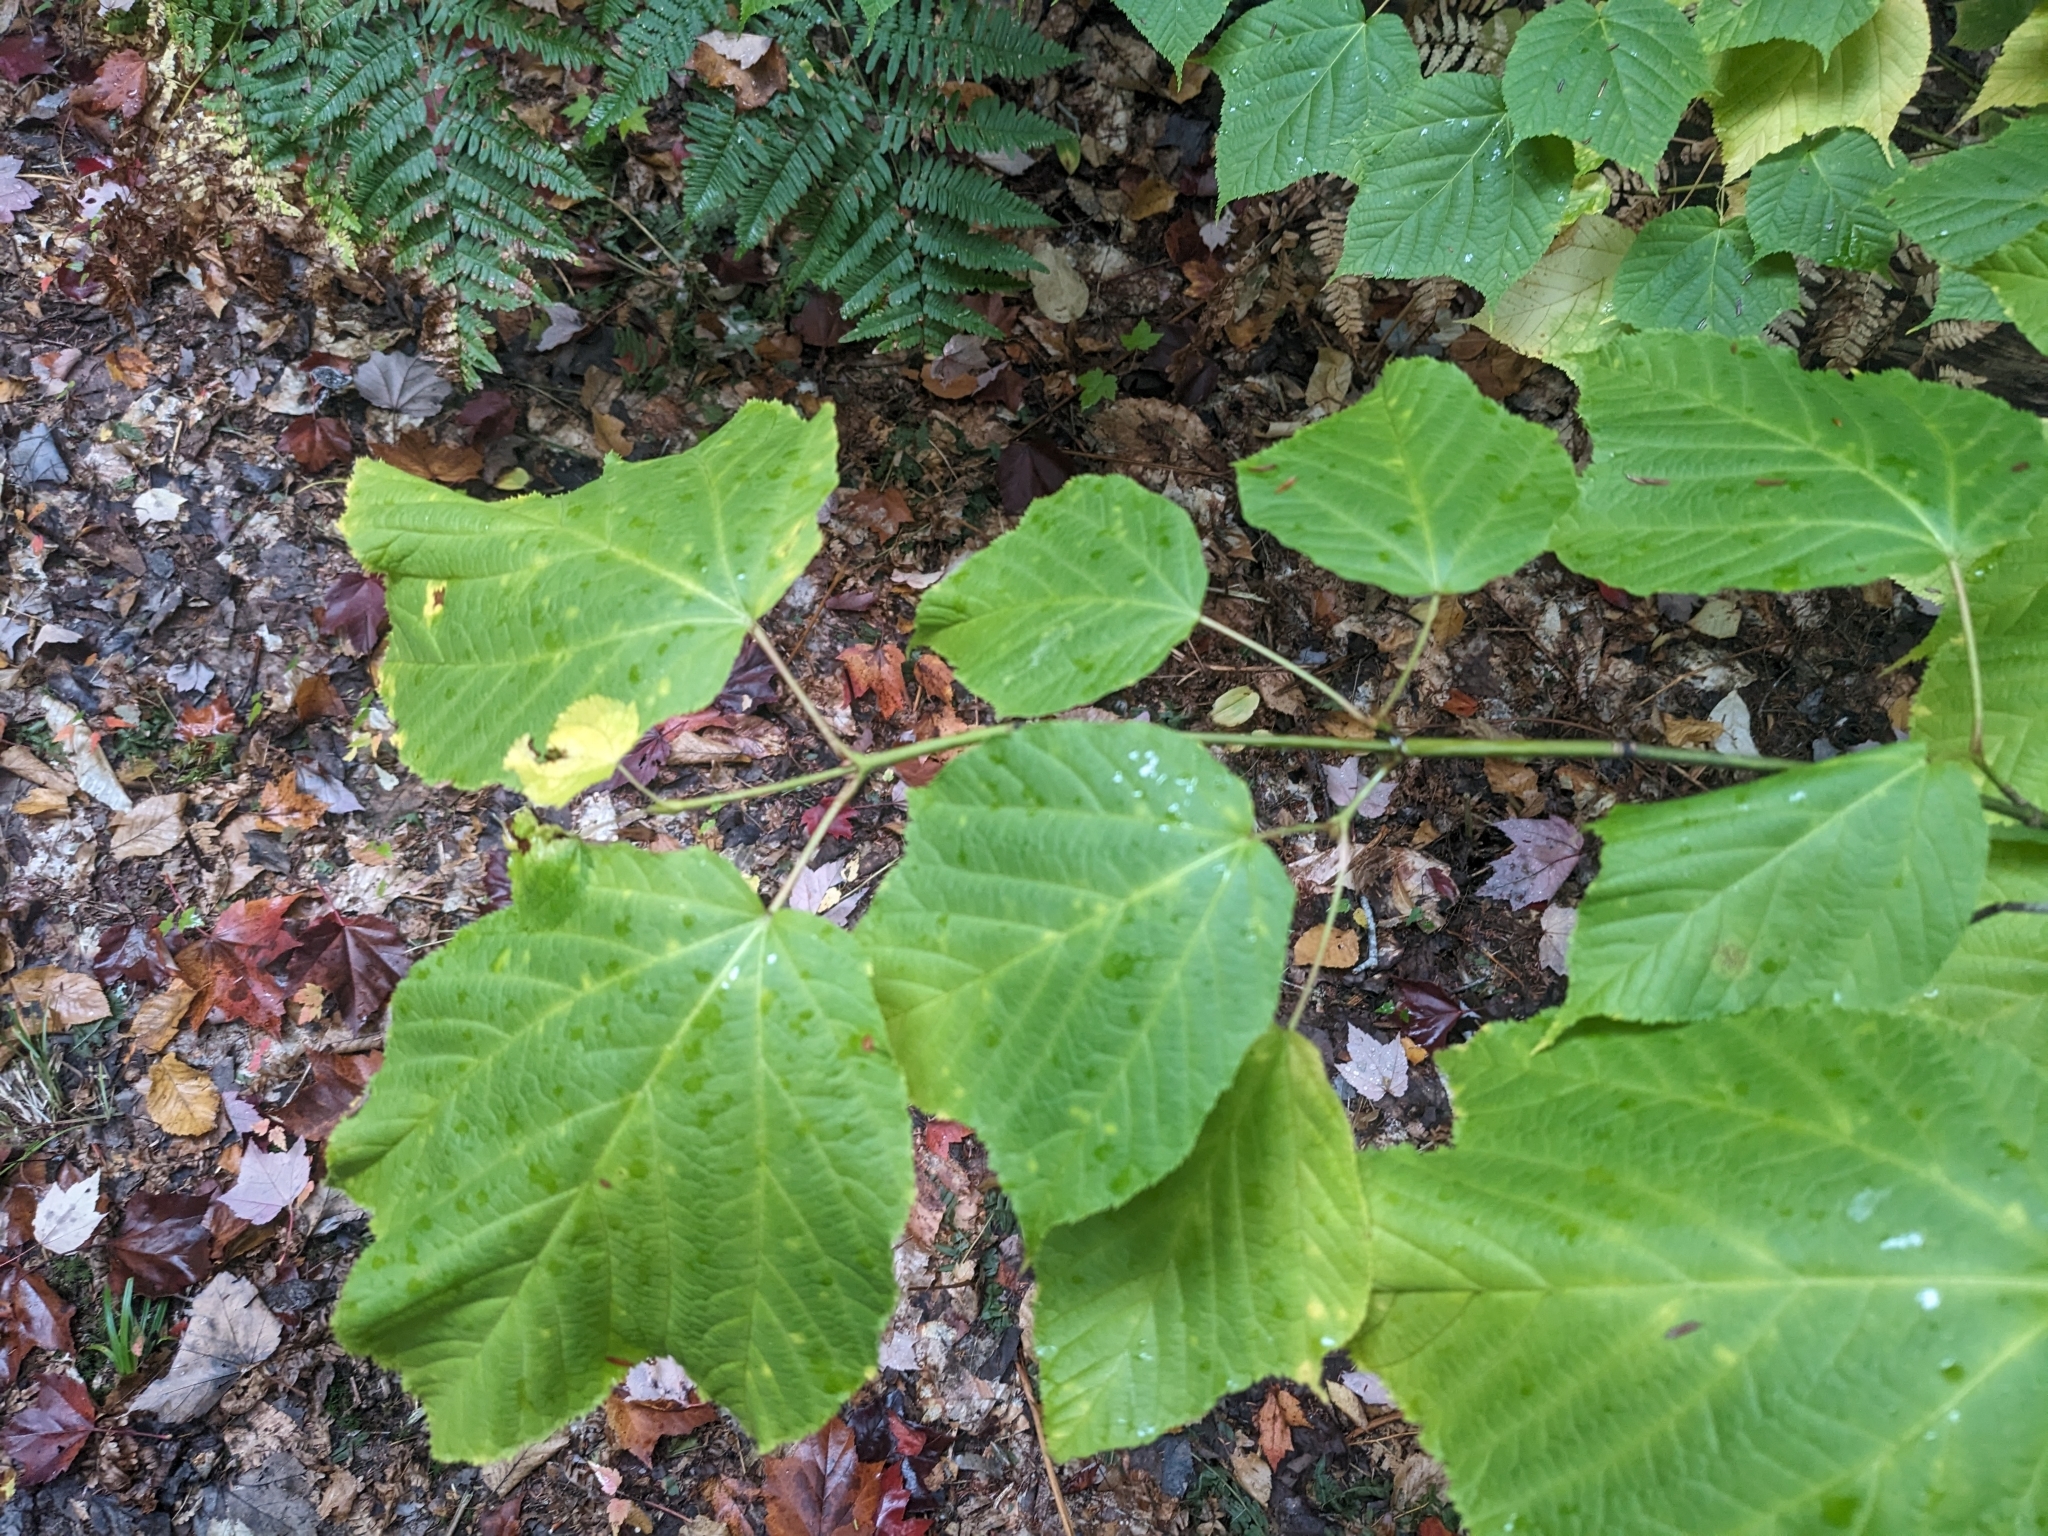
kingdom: Plantae
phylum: Tracheophyta
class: Magnoliopsida
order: Sapindales
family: Sapindaceae
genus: Acer
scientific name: Acer pensylvanicum
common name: Moosewood
